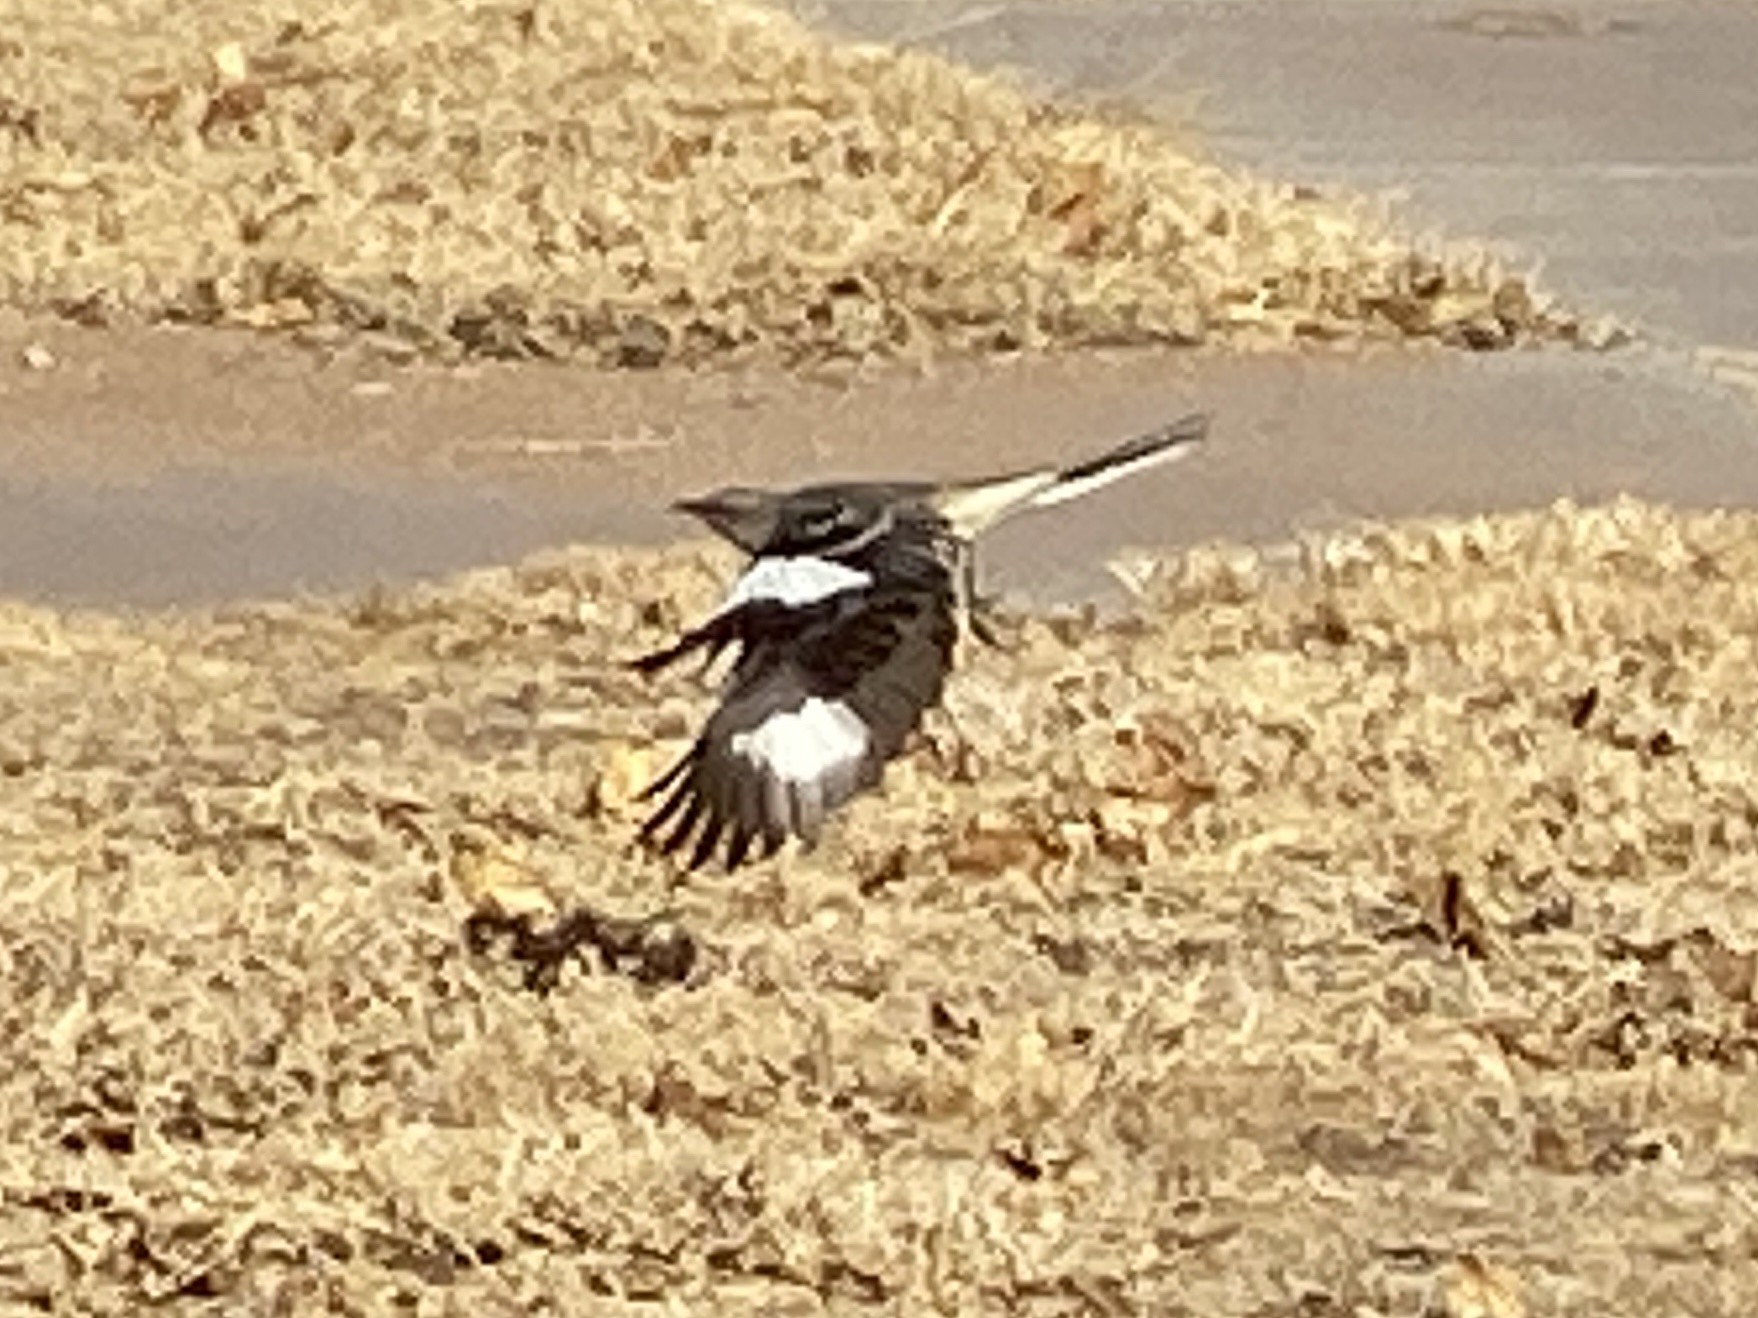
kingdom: Animalia
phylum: Chordata
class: Aves
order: Passeriformes
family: Mimidae
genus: Mimus
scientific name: Mimus polyglottos
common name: Northern mockingbird
